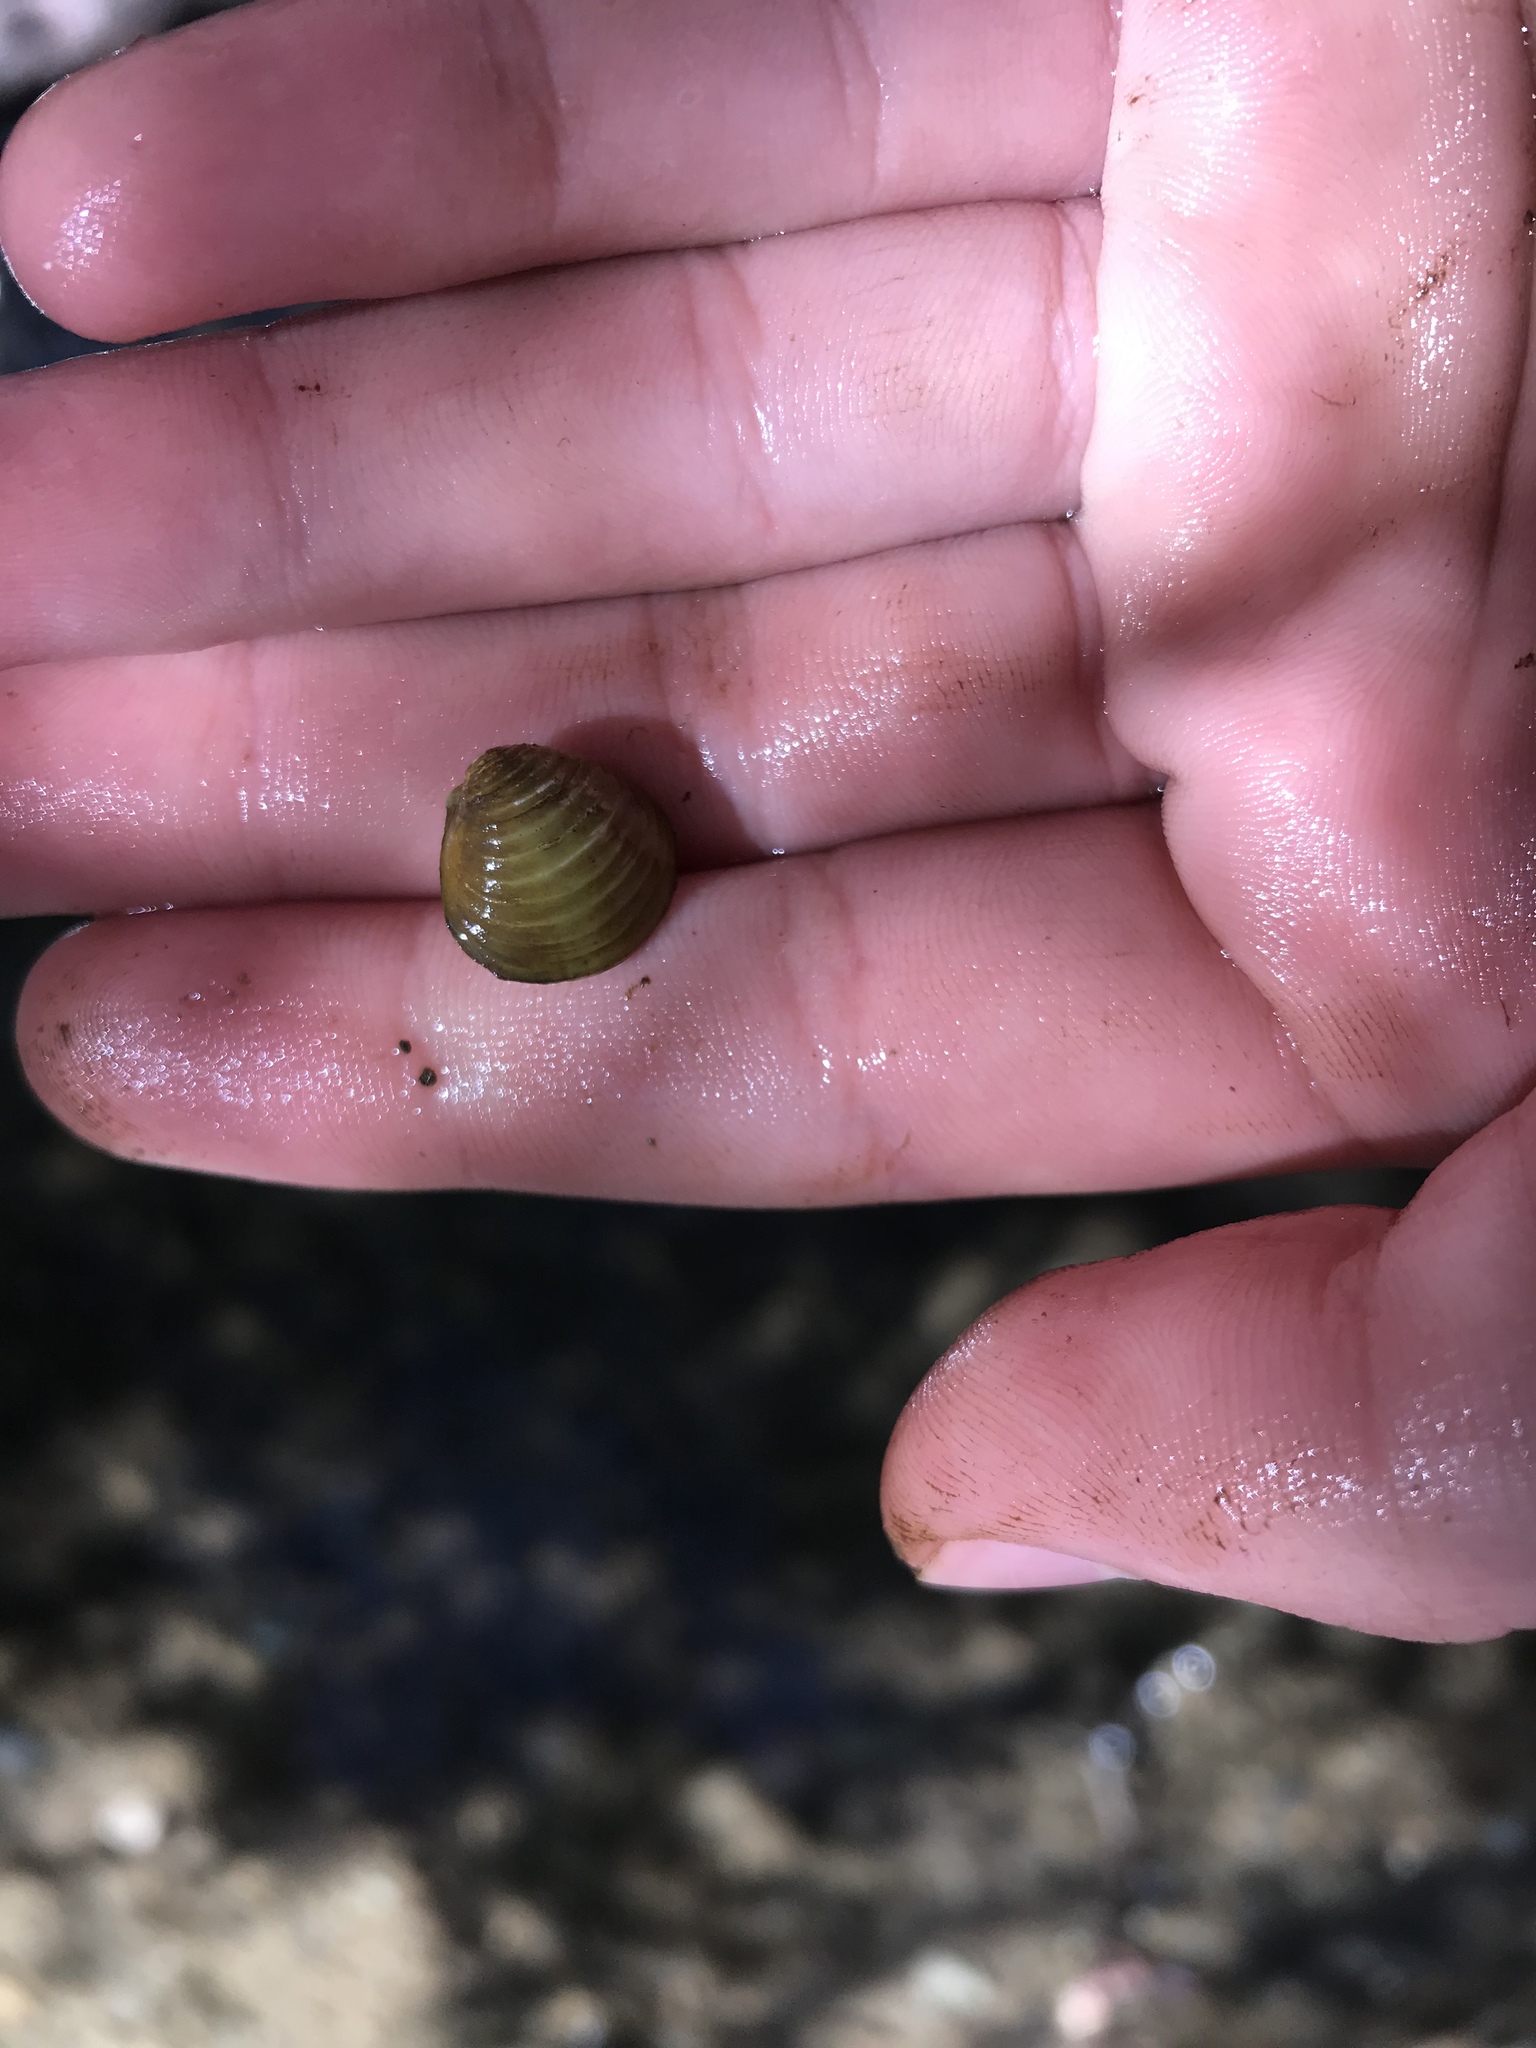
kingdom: Animalia
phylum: Mollusca
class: Bivalvia
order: Venerida
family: Cyrenidae
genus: Corbicula
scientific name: Corbicula fluminea
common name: Asian clam
